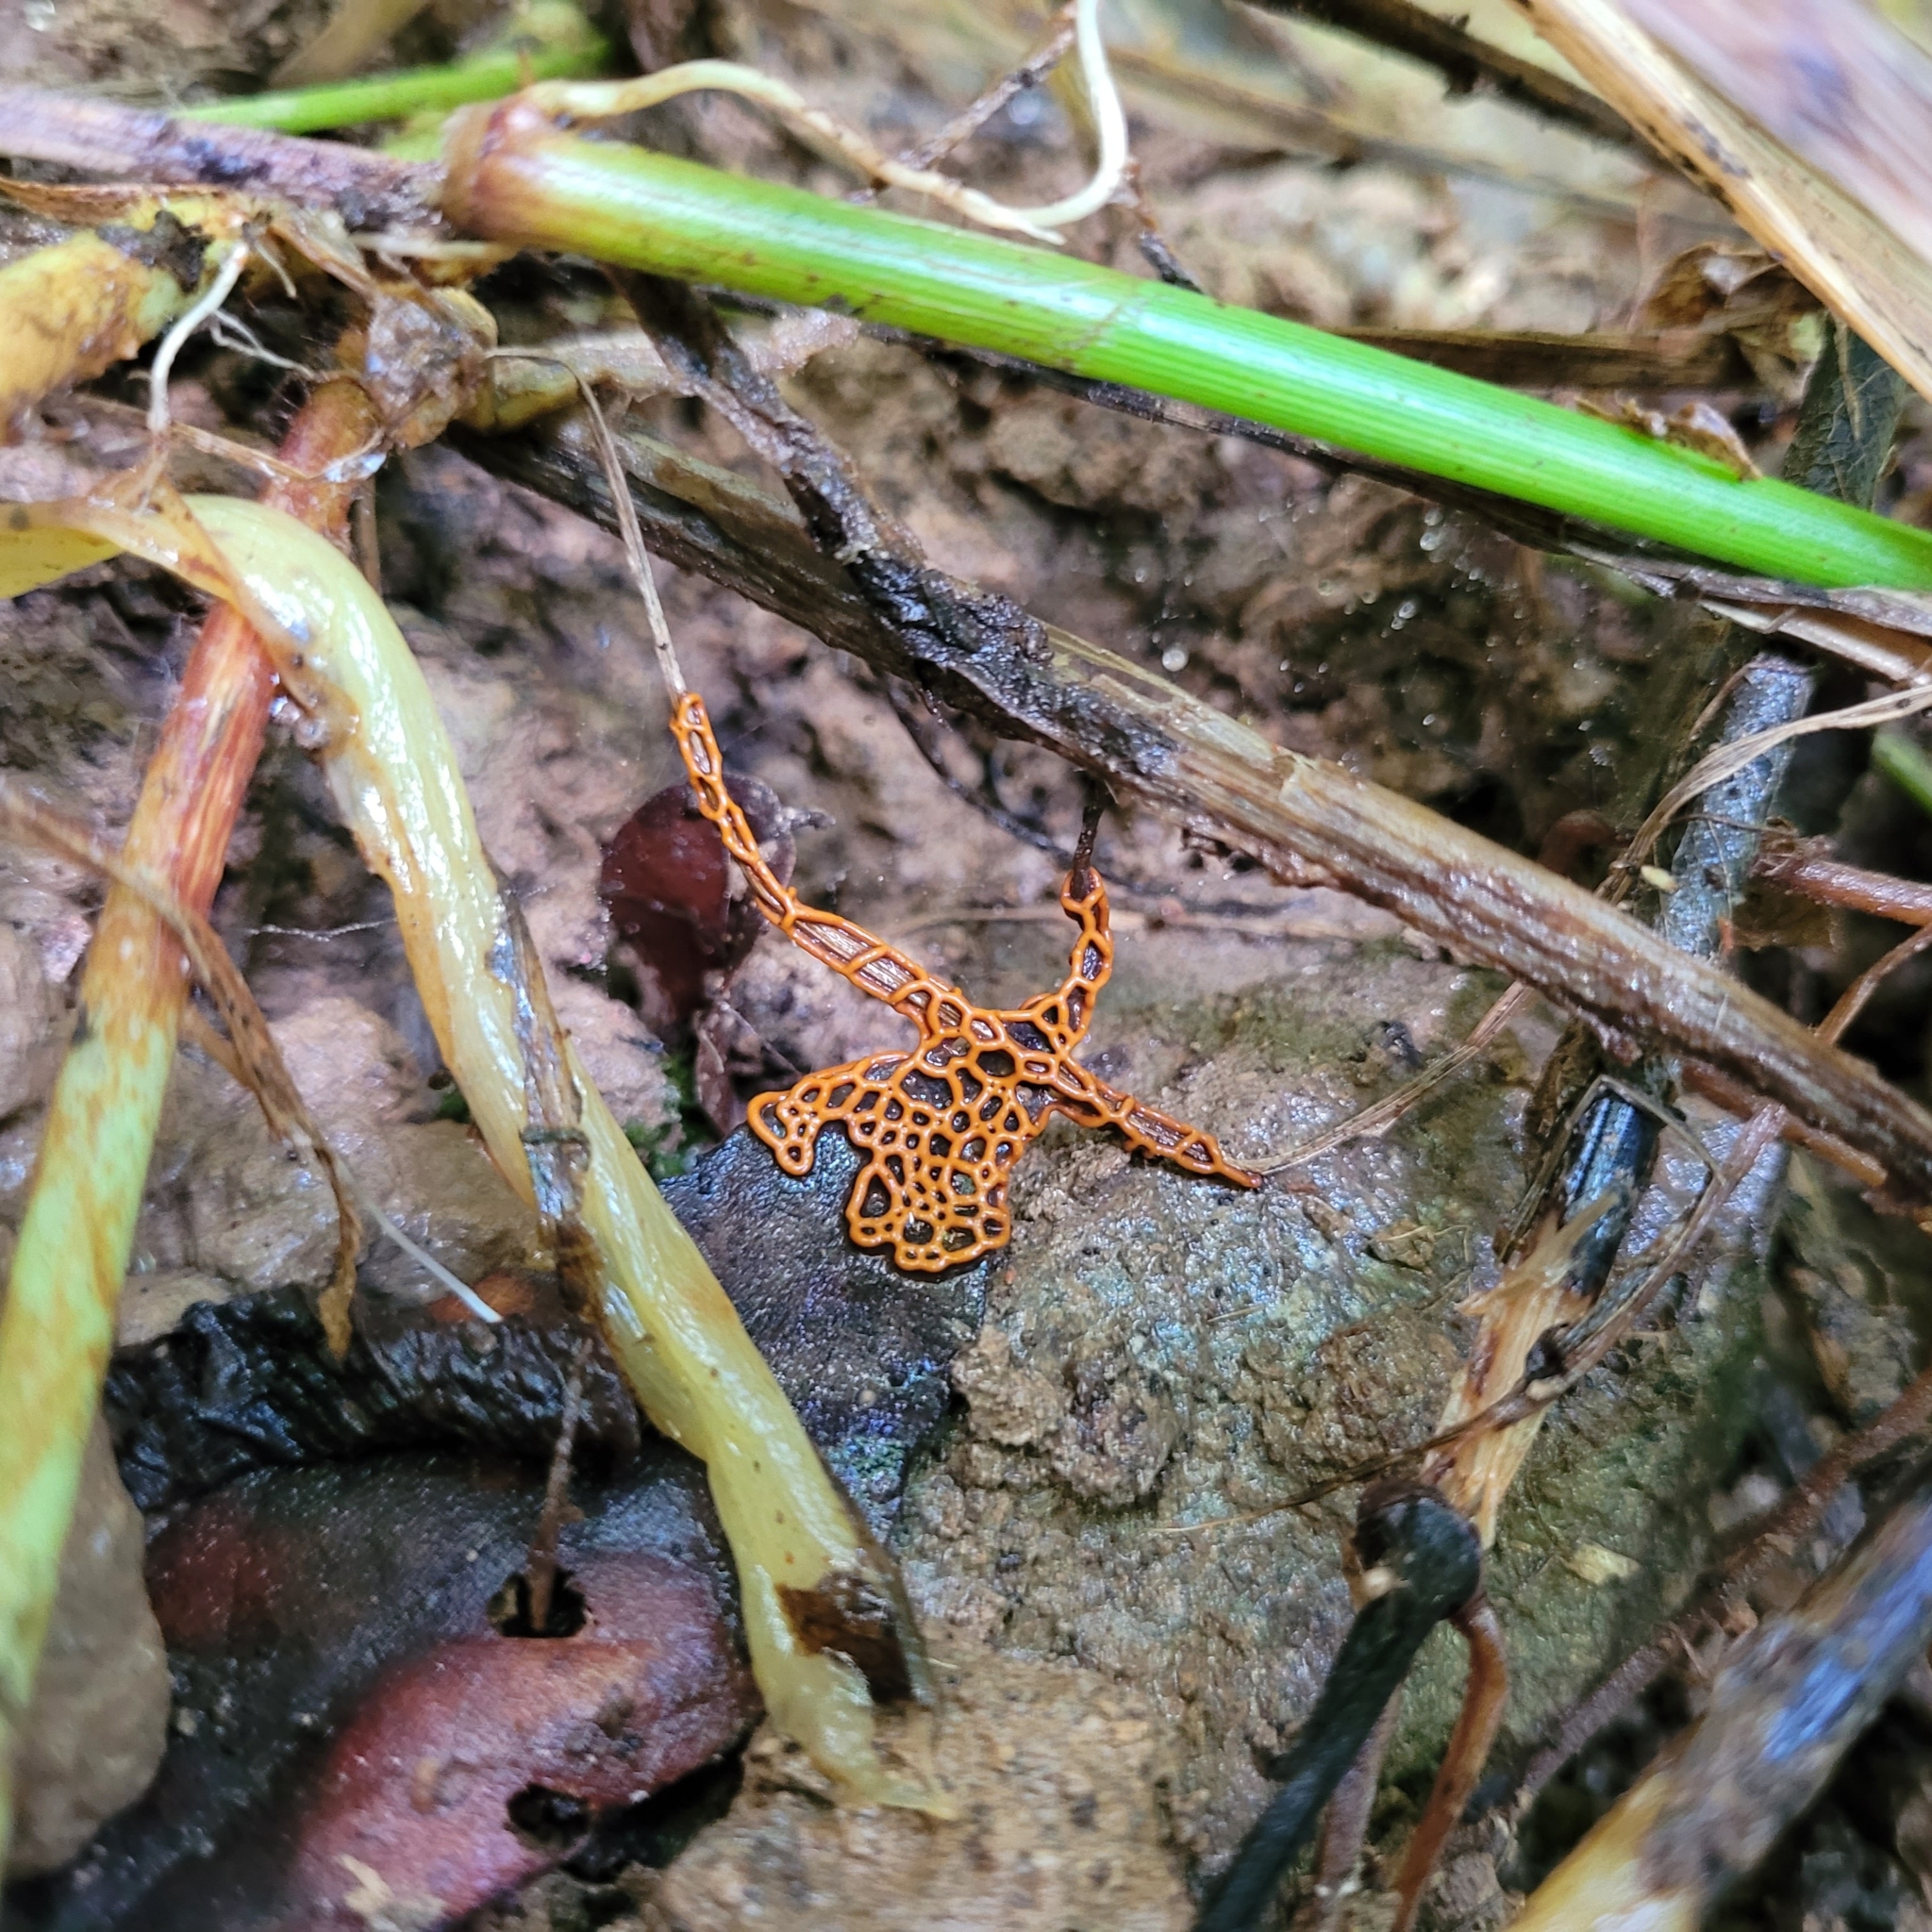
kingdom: Protozoa
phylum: Mycetozoa
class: Myxomycetes
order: Trichiales
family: Arcyriaceae
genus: Hemitrichia
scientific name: Hemitrichia serpula
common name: Pretzel slime mold
